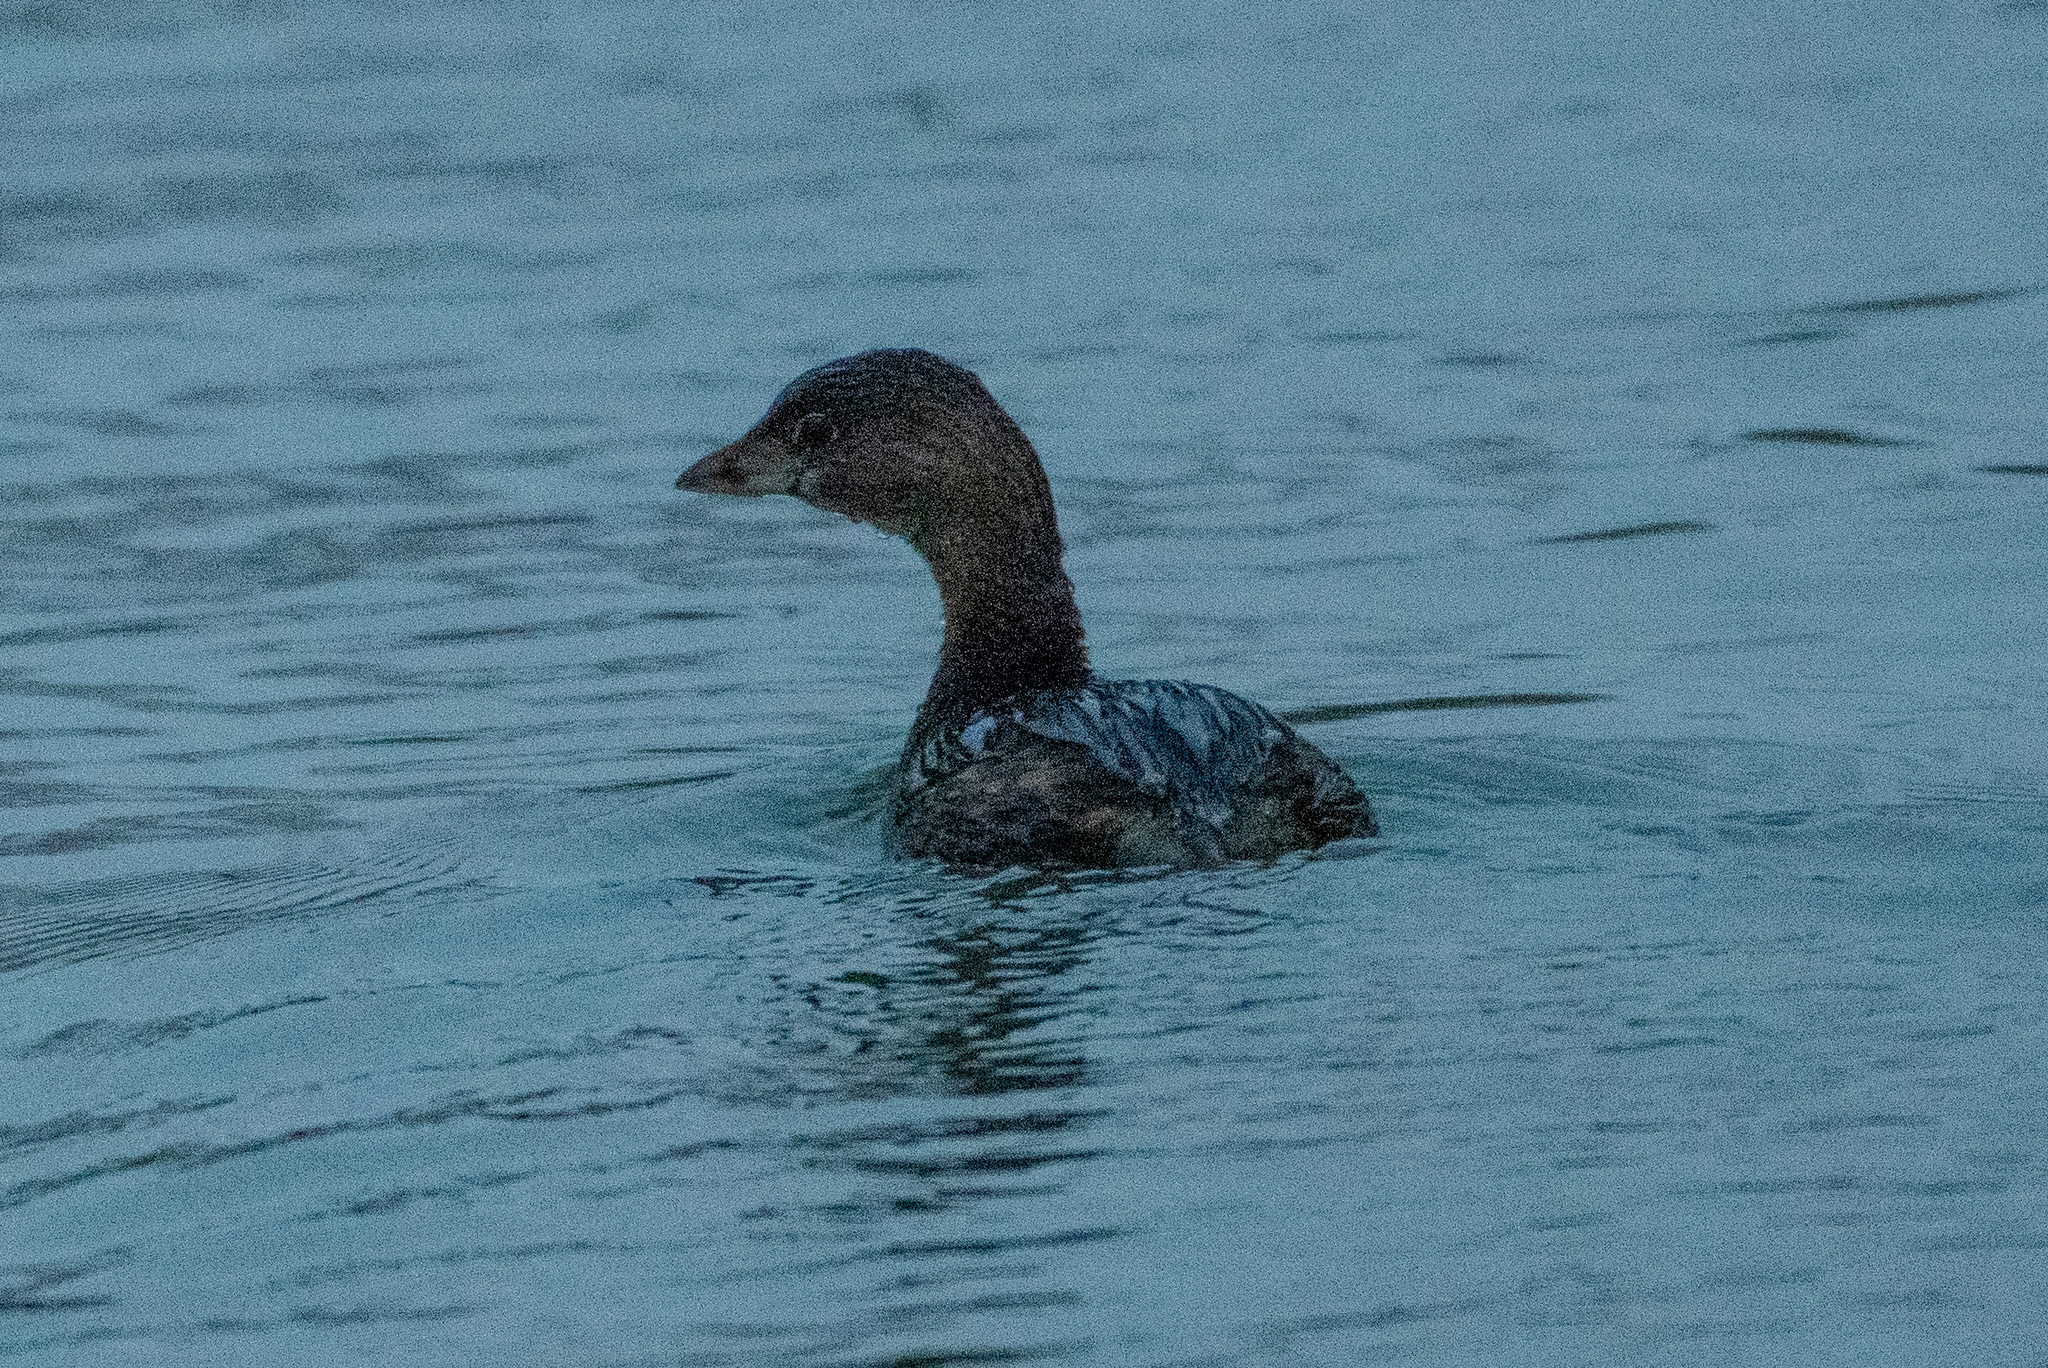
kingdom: Animalia
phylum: Chordata
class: Aves
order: Podicipediformes
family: Podicipedidae
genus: Podilymbus
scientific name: Podilymbus podiceps
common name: Pied-billed grebe
